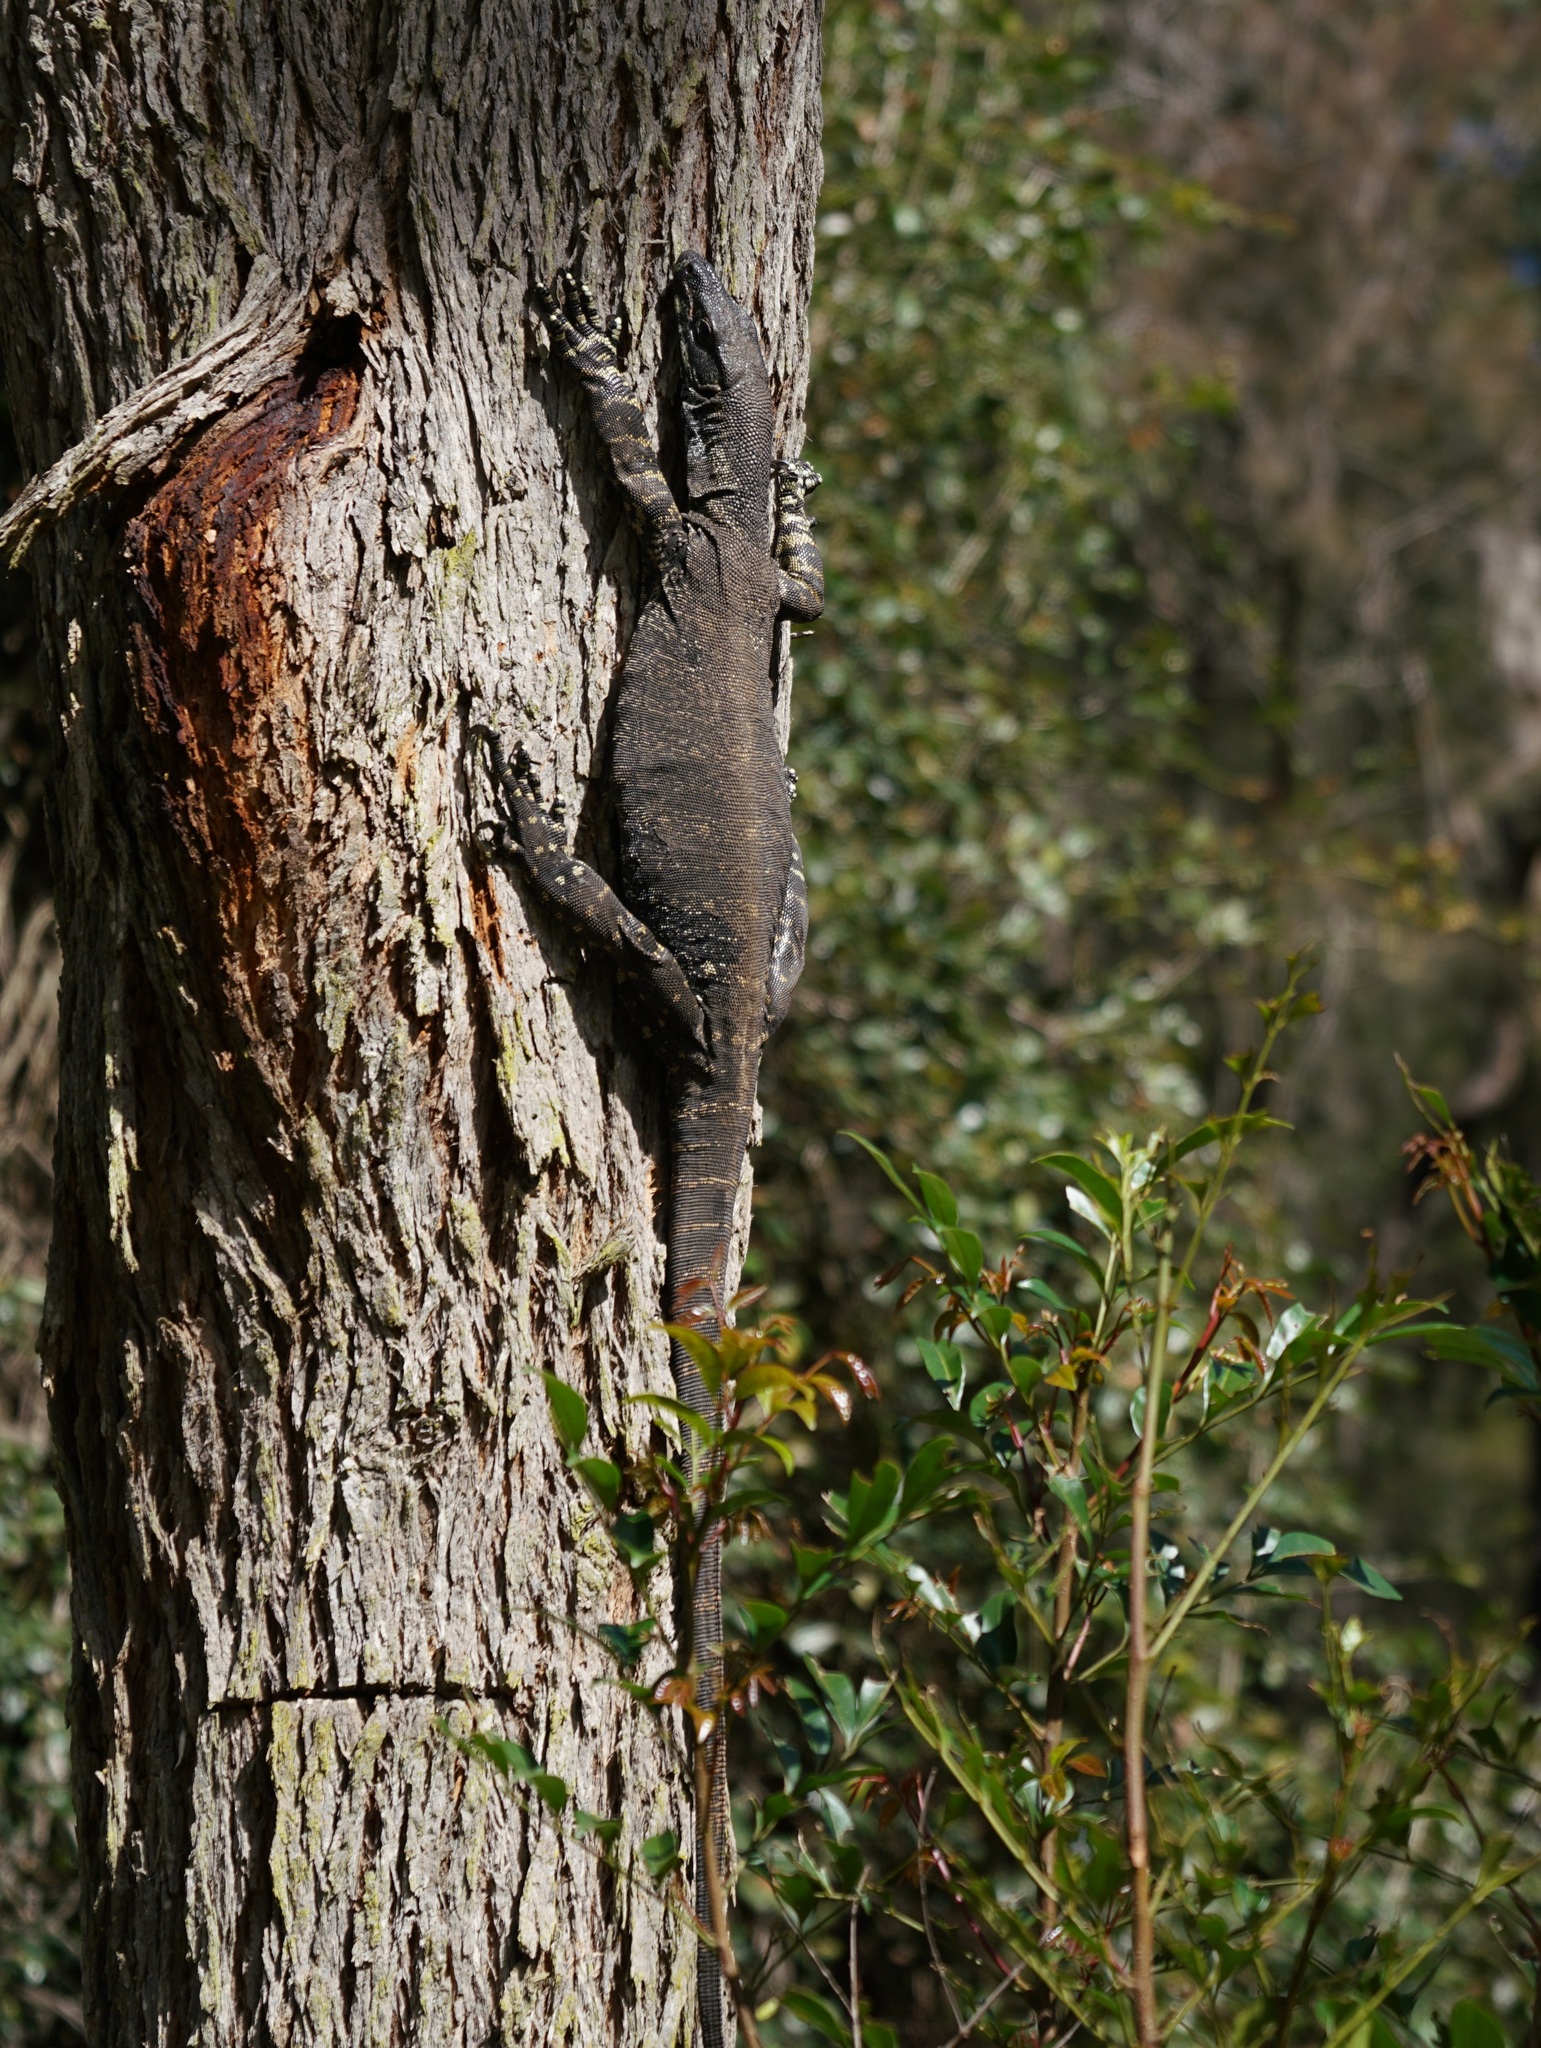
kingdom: Animalia
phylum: Chordata
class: Squamata
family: Varanidae
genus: Varanus
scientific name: Varanus varius
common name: Lace monitor
